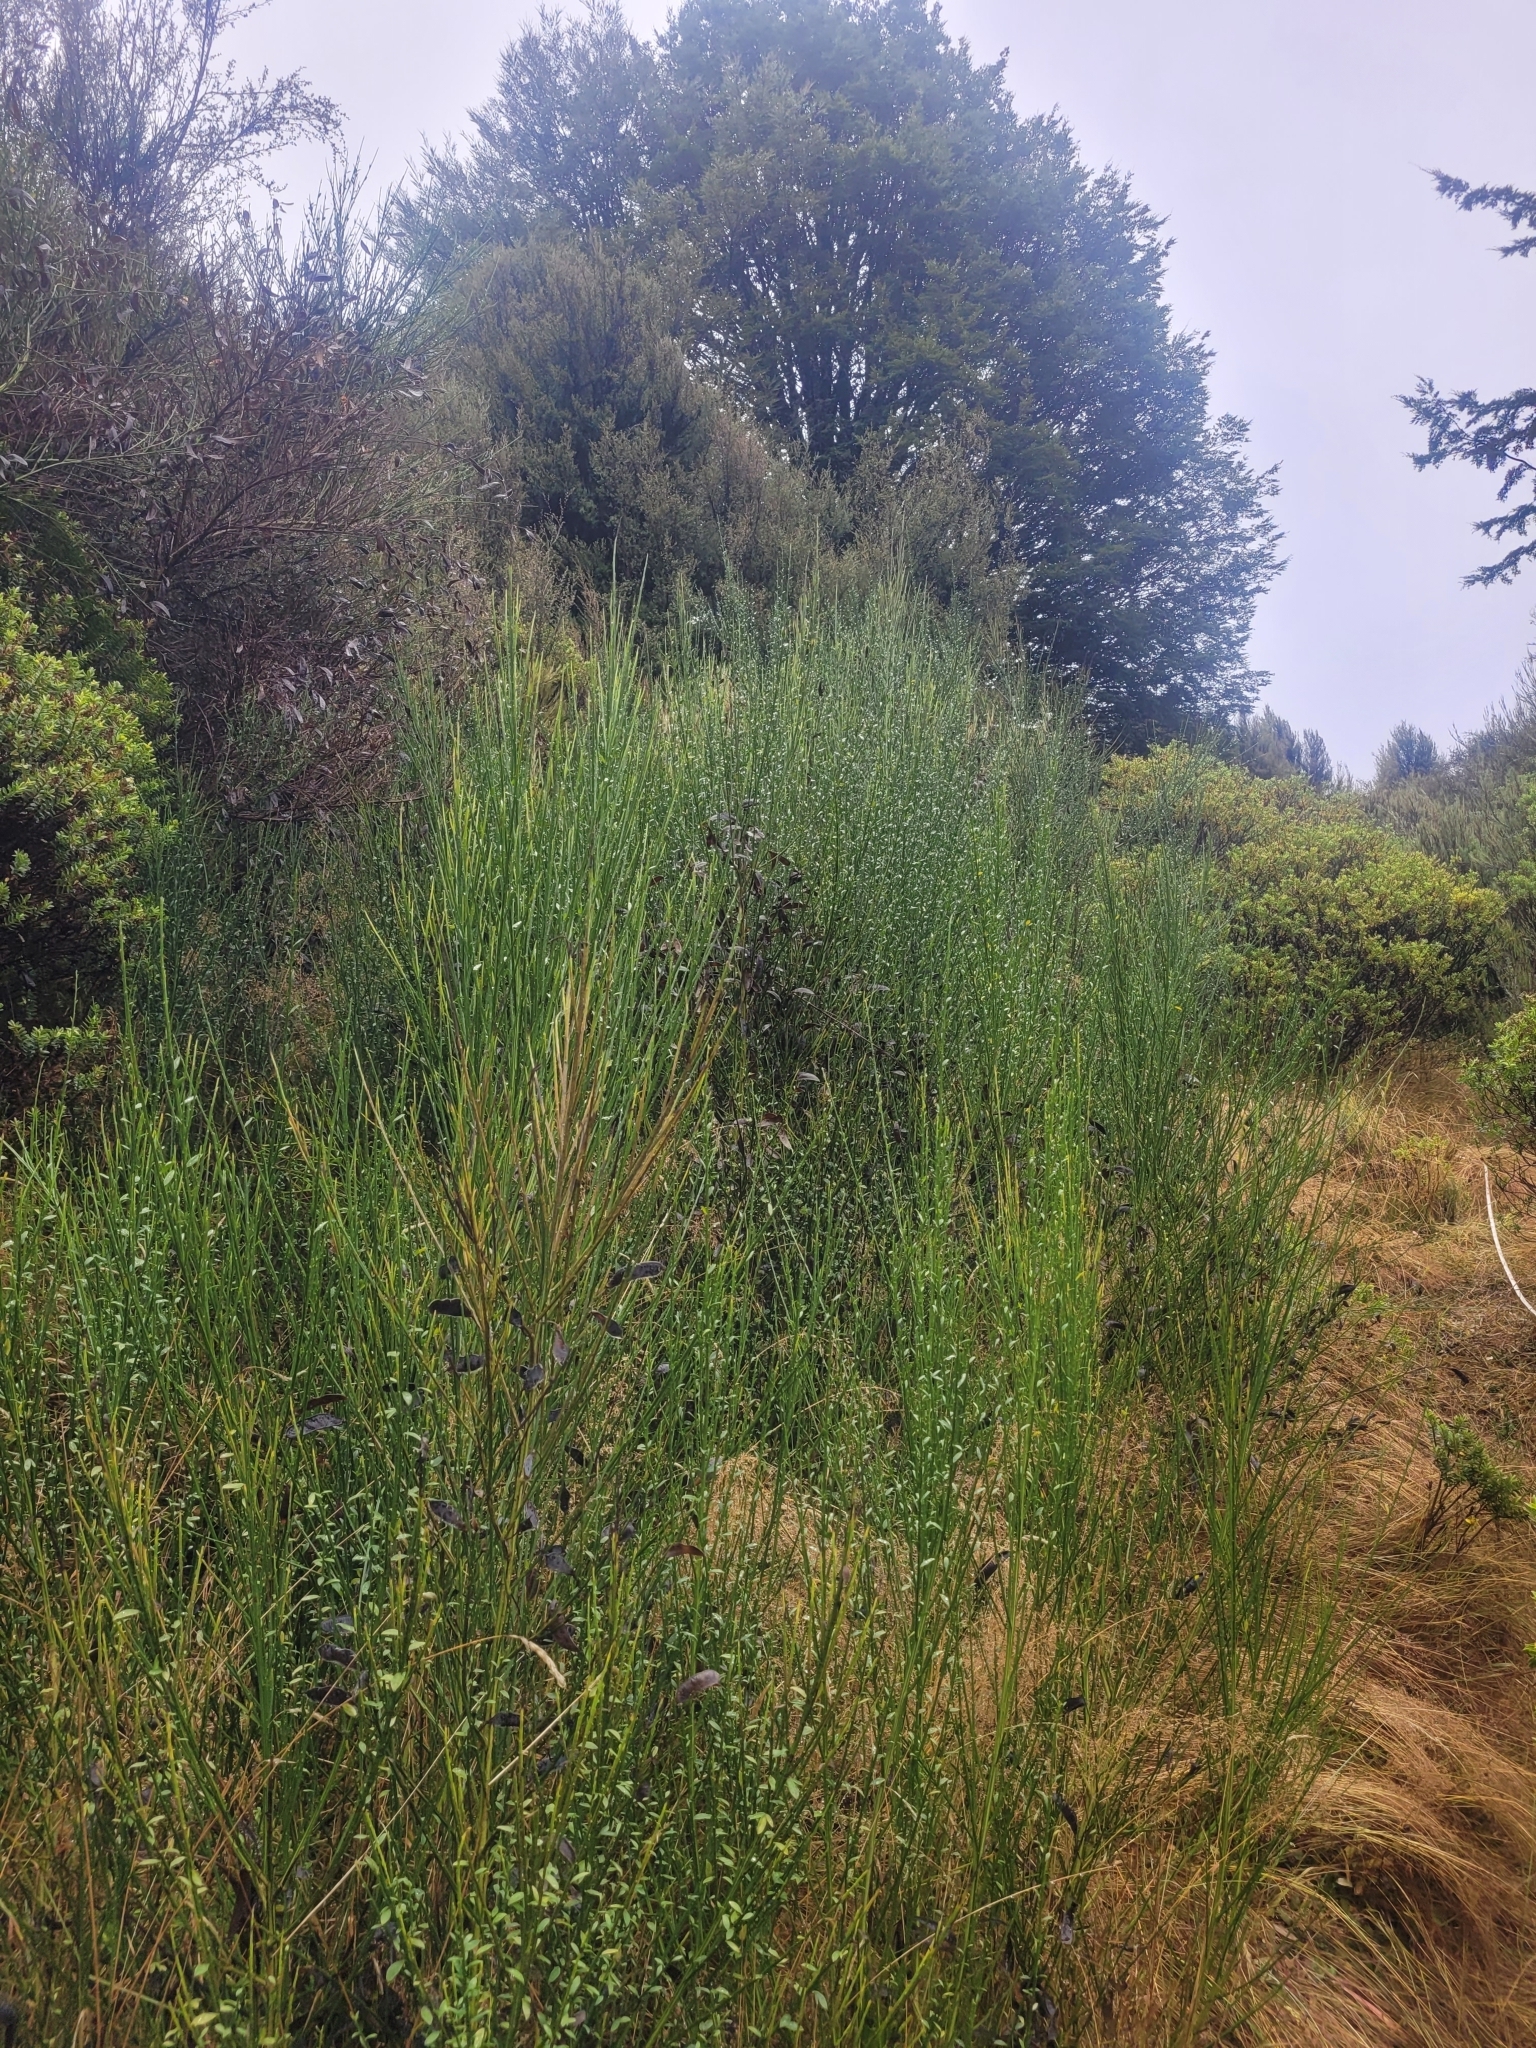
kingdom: Plantae
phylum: Tracheophyta
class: Magnoliopsida
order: Fabales
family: Fabaceae
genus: Cytisus
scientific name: Cytisus scoparius
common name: Scotch broom
